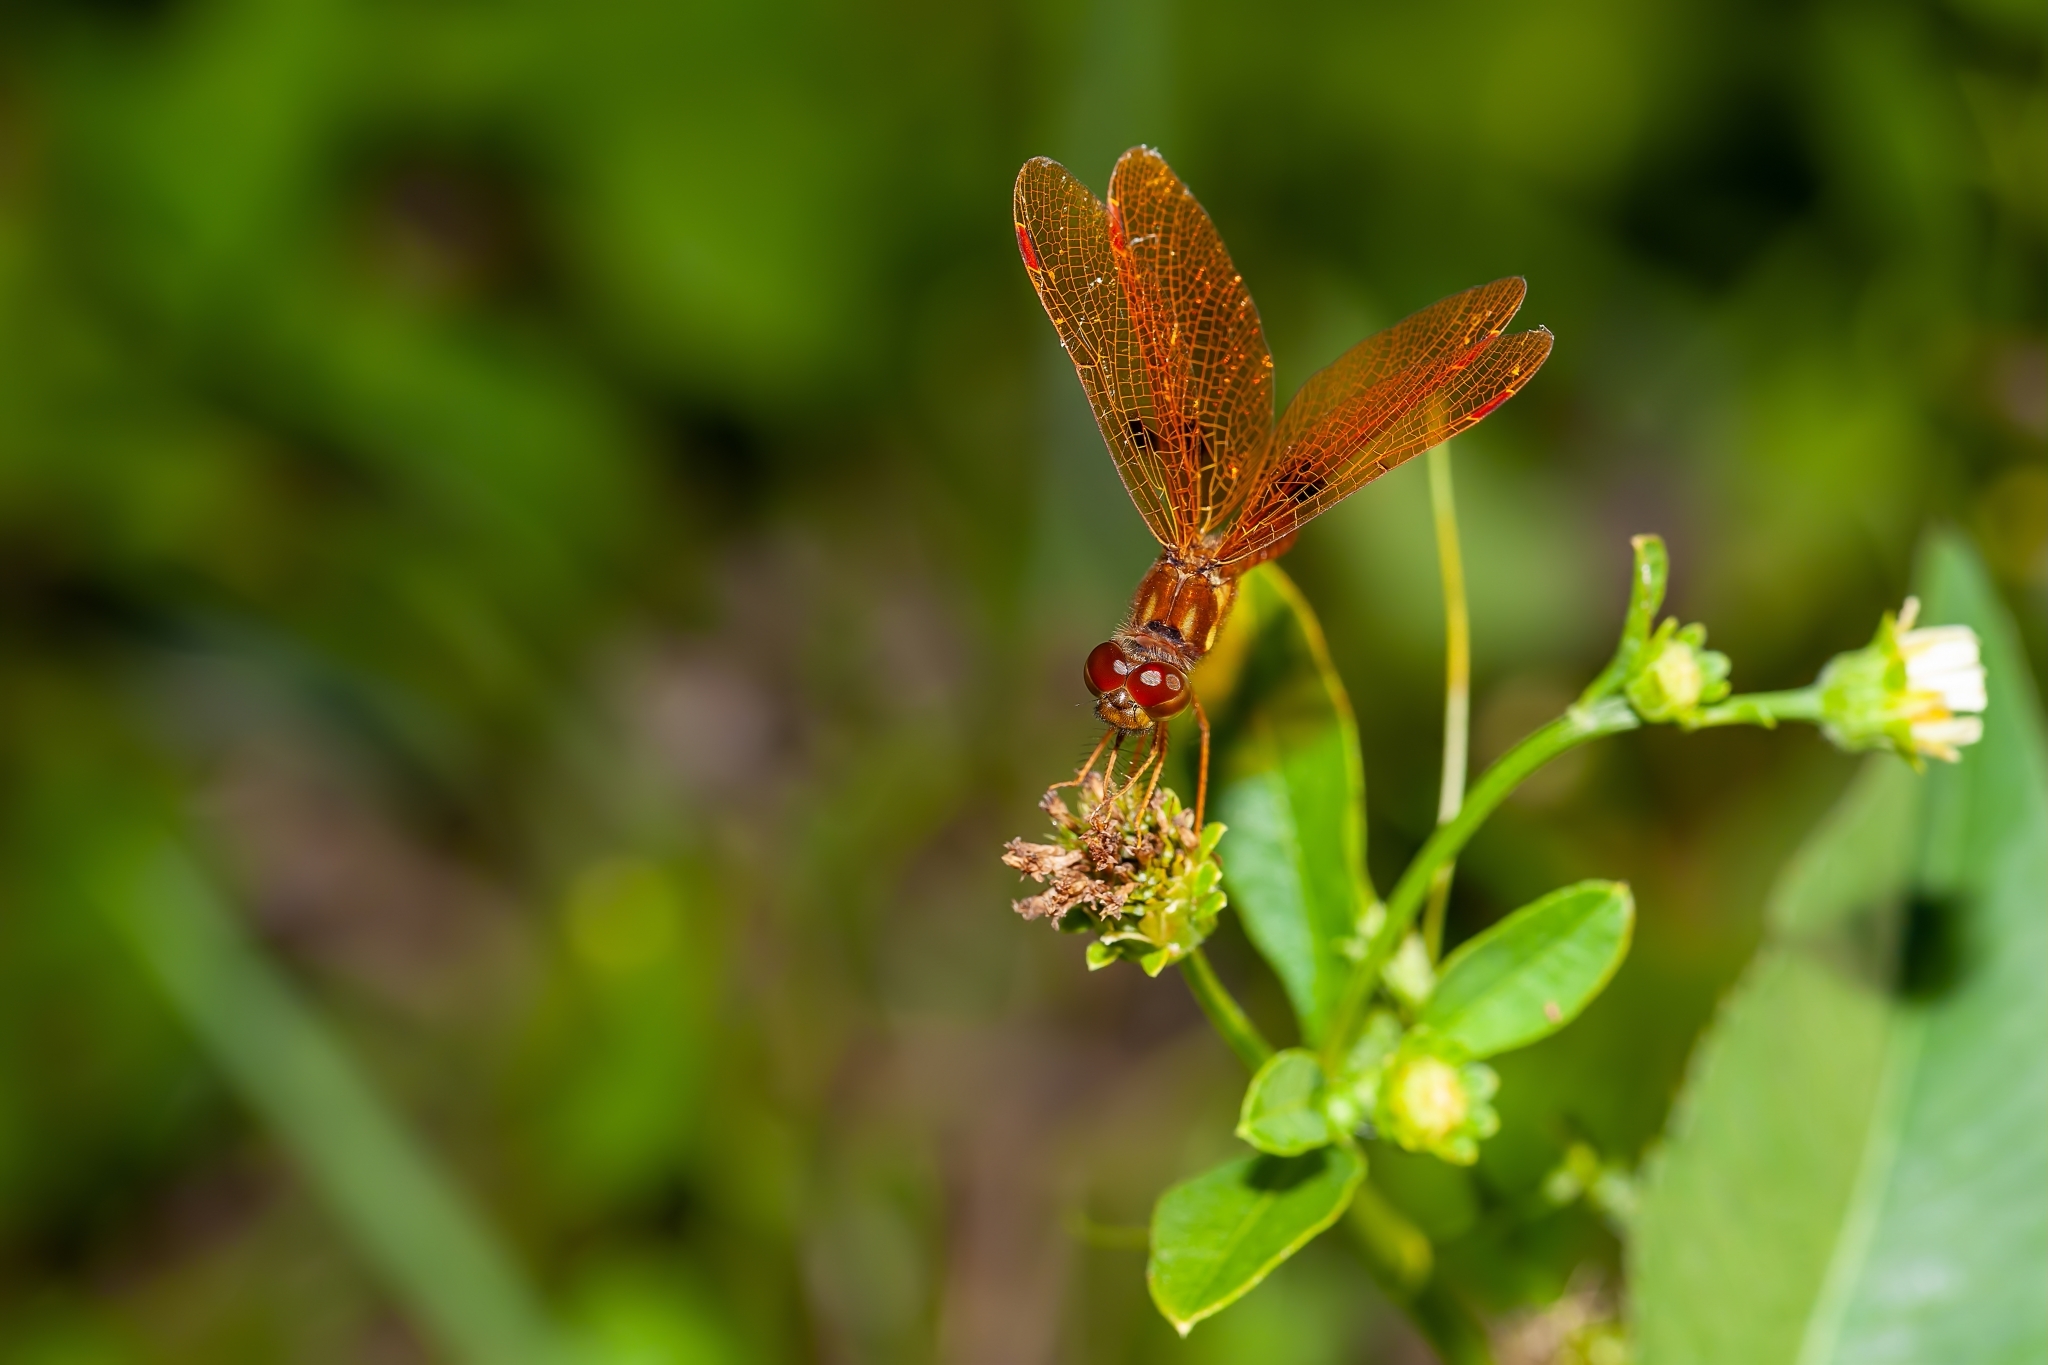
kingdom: Animalia
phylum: Arthropoda
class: Insecta
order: Odonata
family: Libellulidae
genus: Perithemis
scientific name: Perithemis tenera
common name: Eastern amberwing
